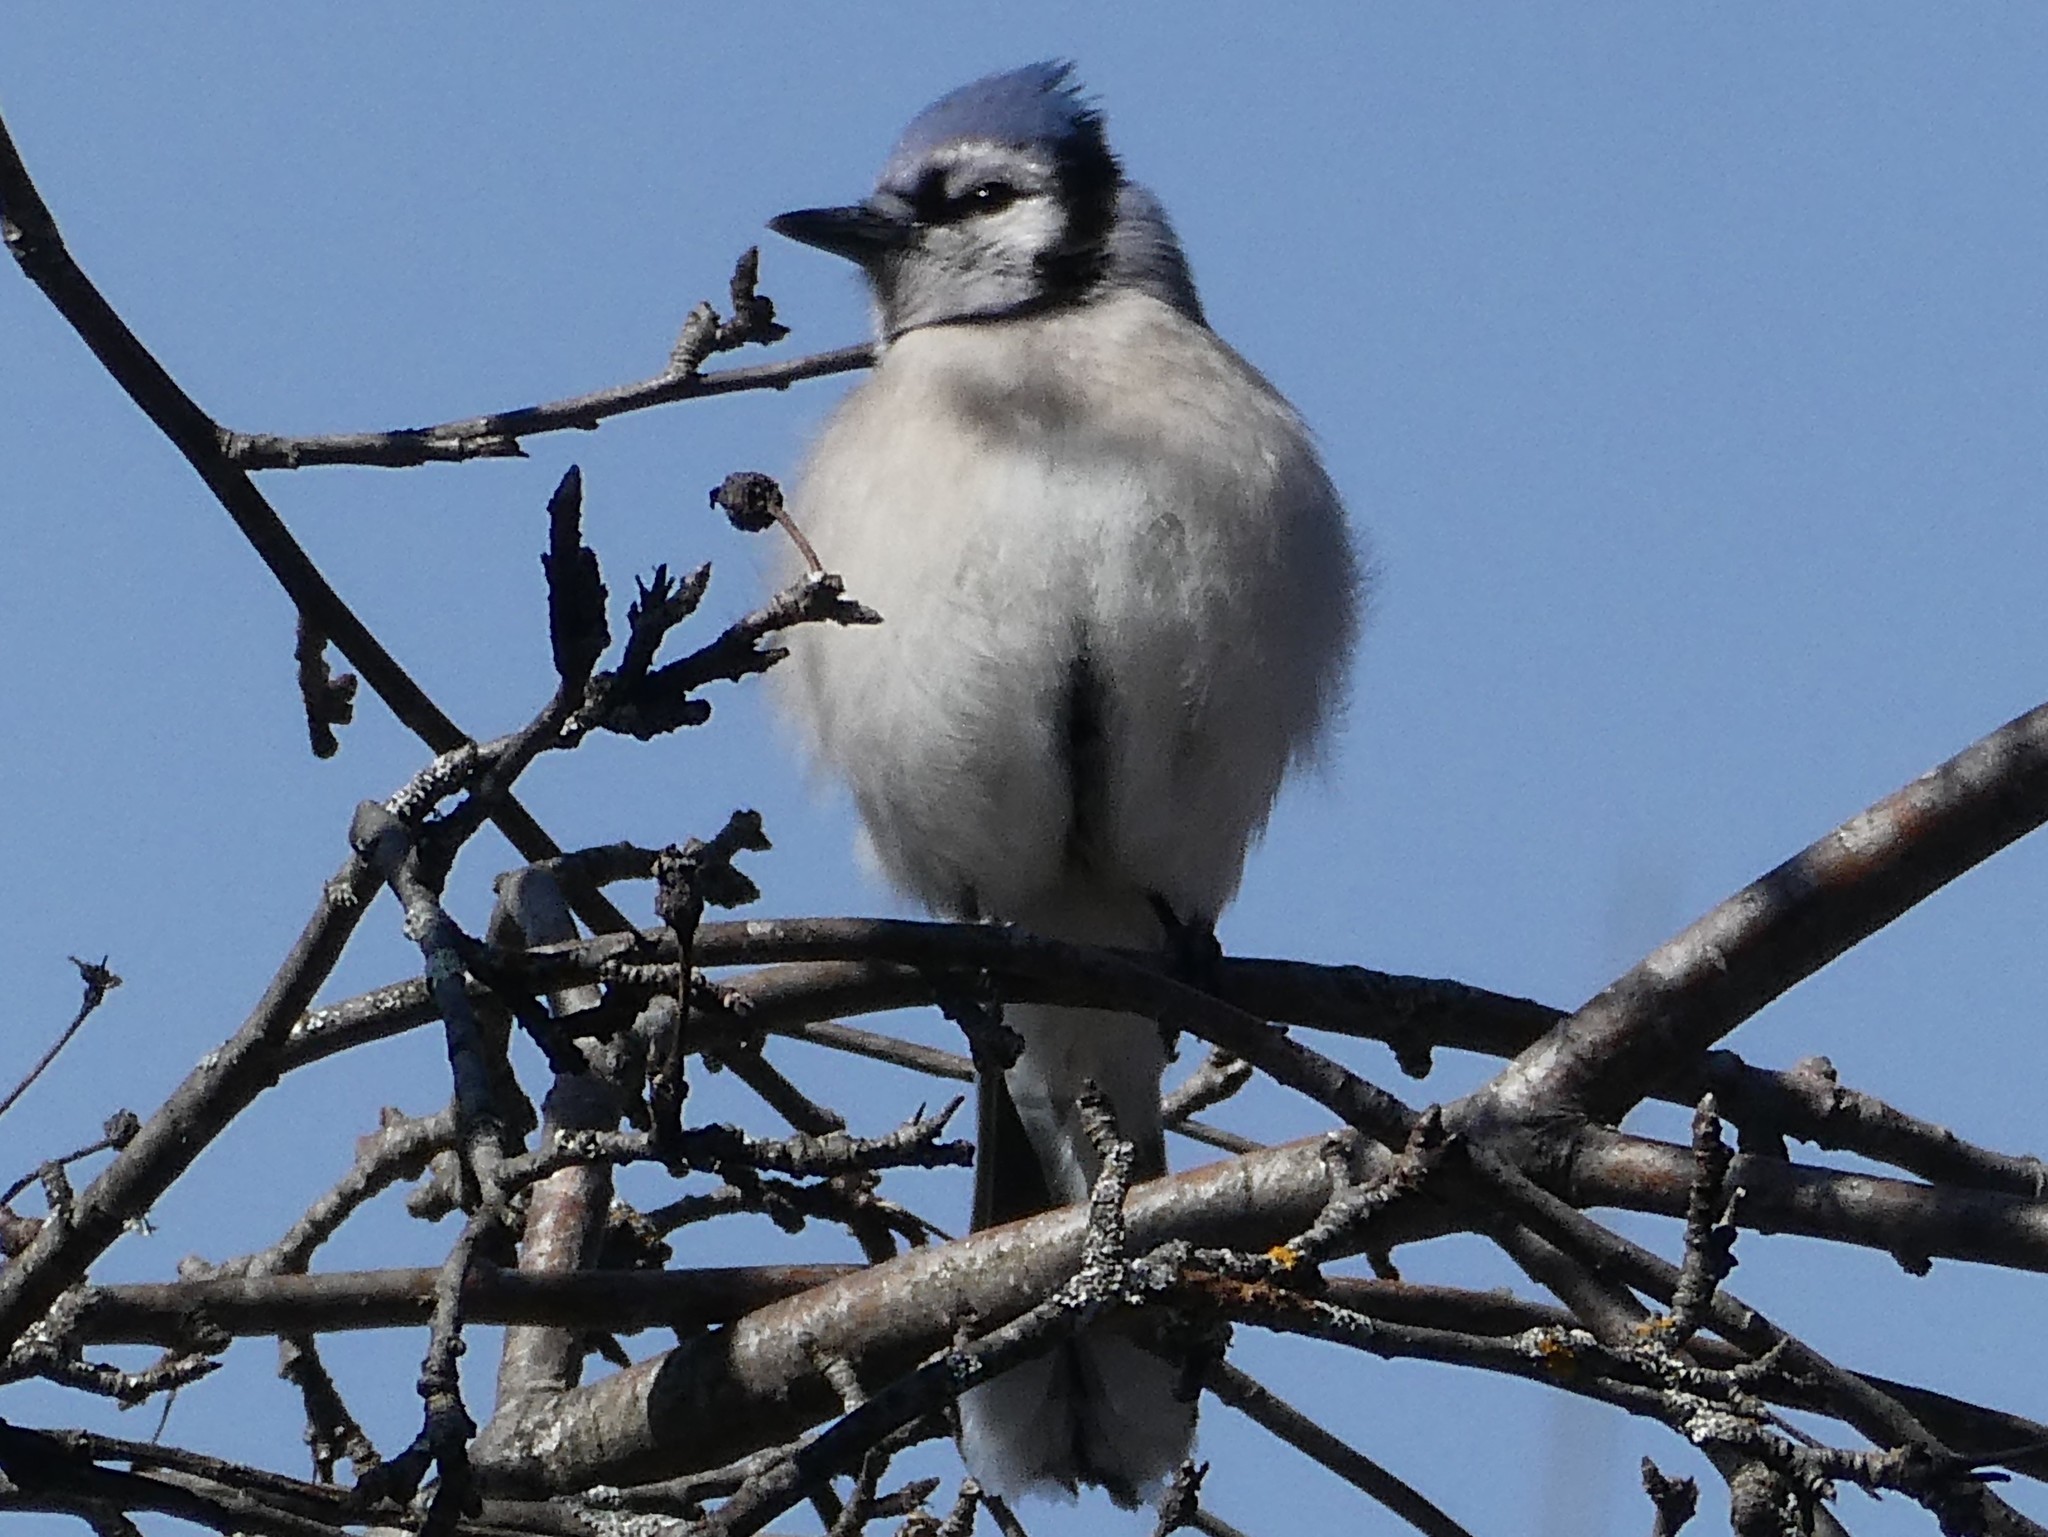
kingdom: Animalia
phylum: Chordata
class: Aves
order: Passeriformes
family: Corvidae
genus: Cyanocitta
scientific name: Cyanocitta cristata
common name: Blue jay
